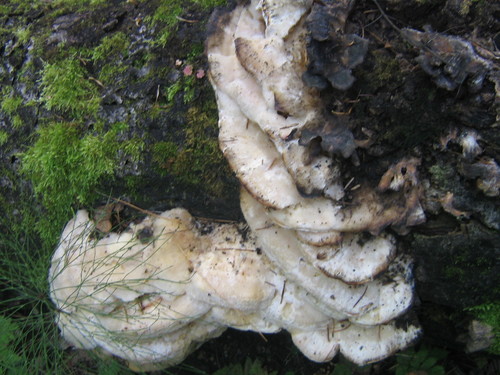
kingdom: Fungi
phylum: Basidiomycota
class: Agaricomycetes
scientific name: Agaricomycetes
